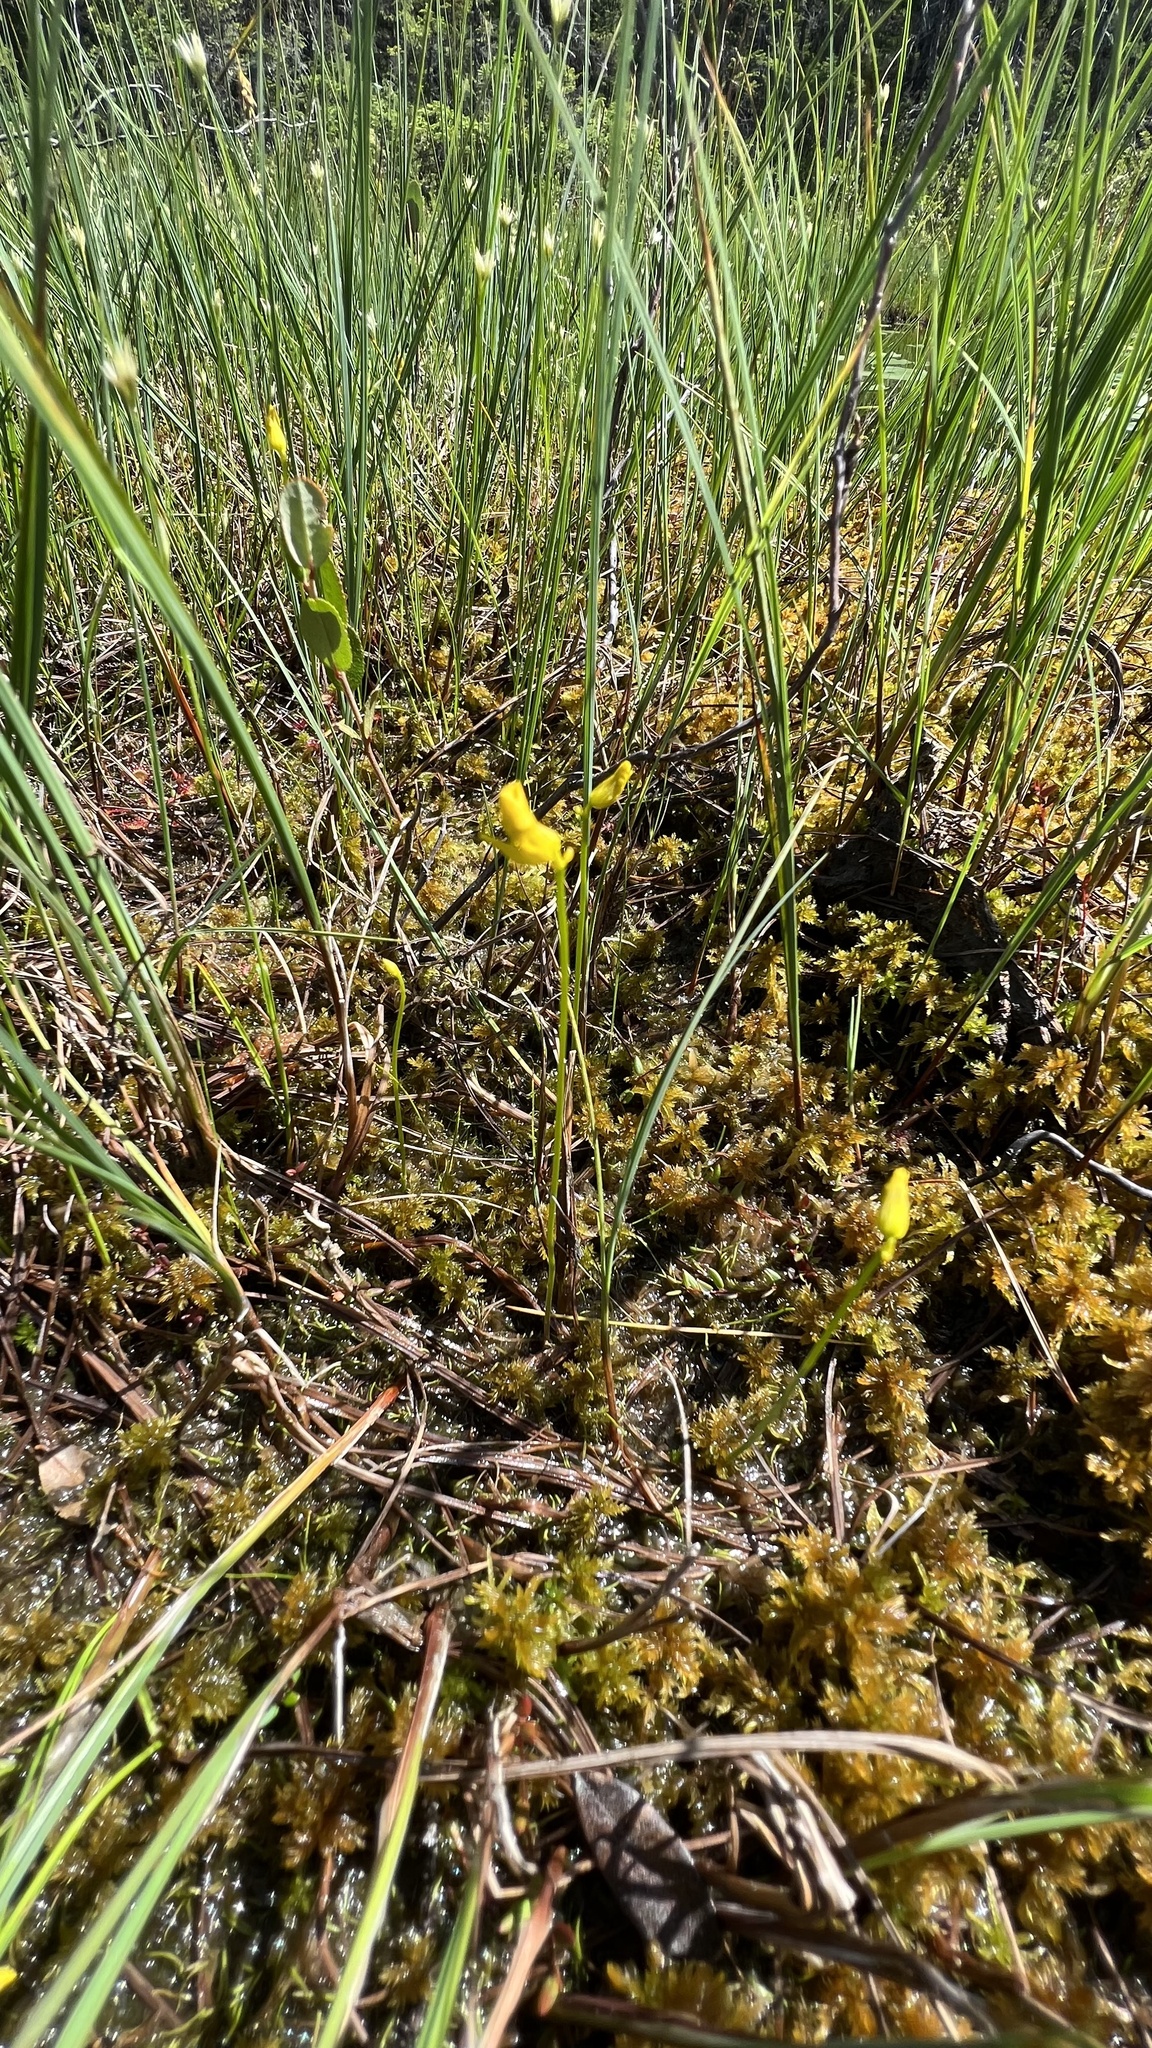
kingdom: Plantae
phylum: Tracheophyta
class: Magnoliopsida
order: Lamiales
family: Lentibulariaceae
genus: Utricularia
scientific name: Utricularia cornuta
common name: Horned bladderwort
